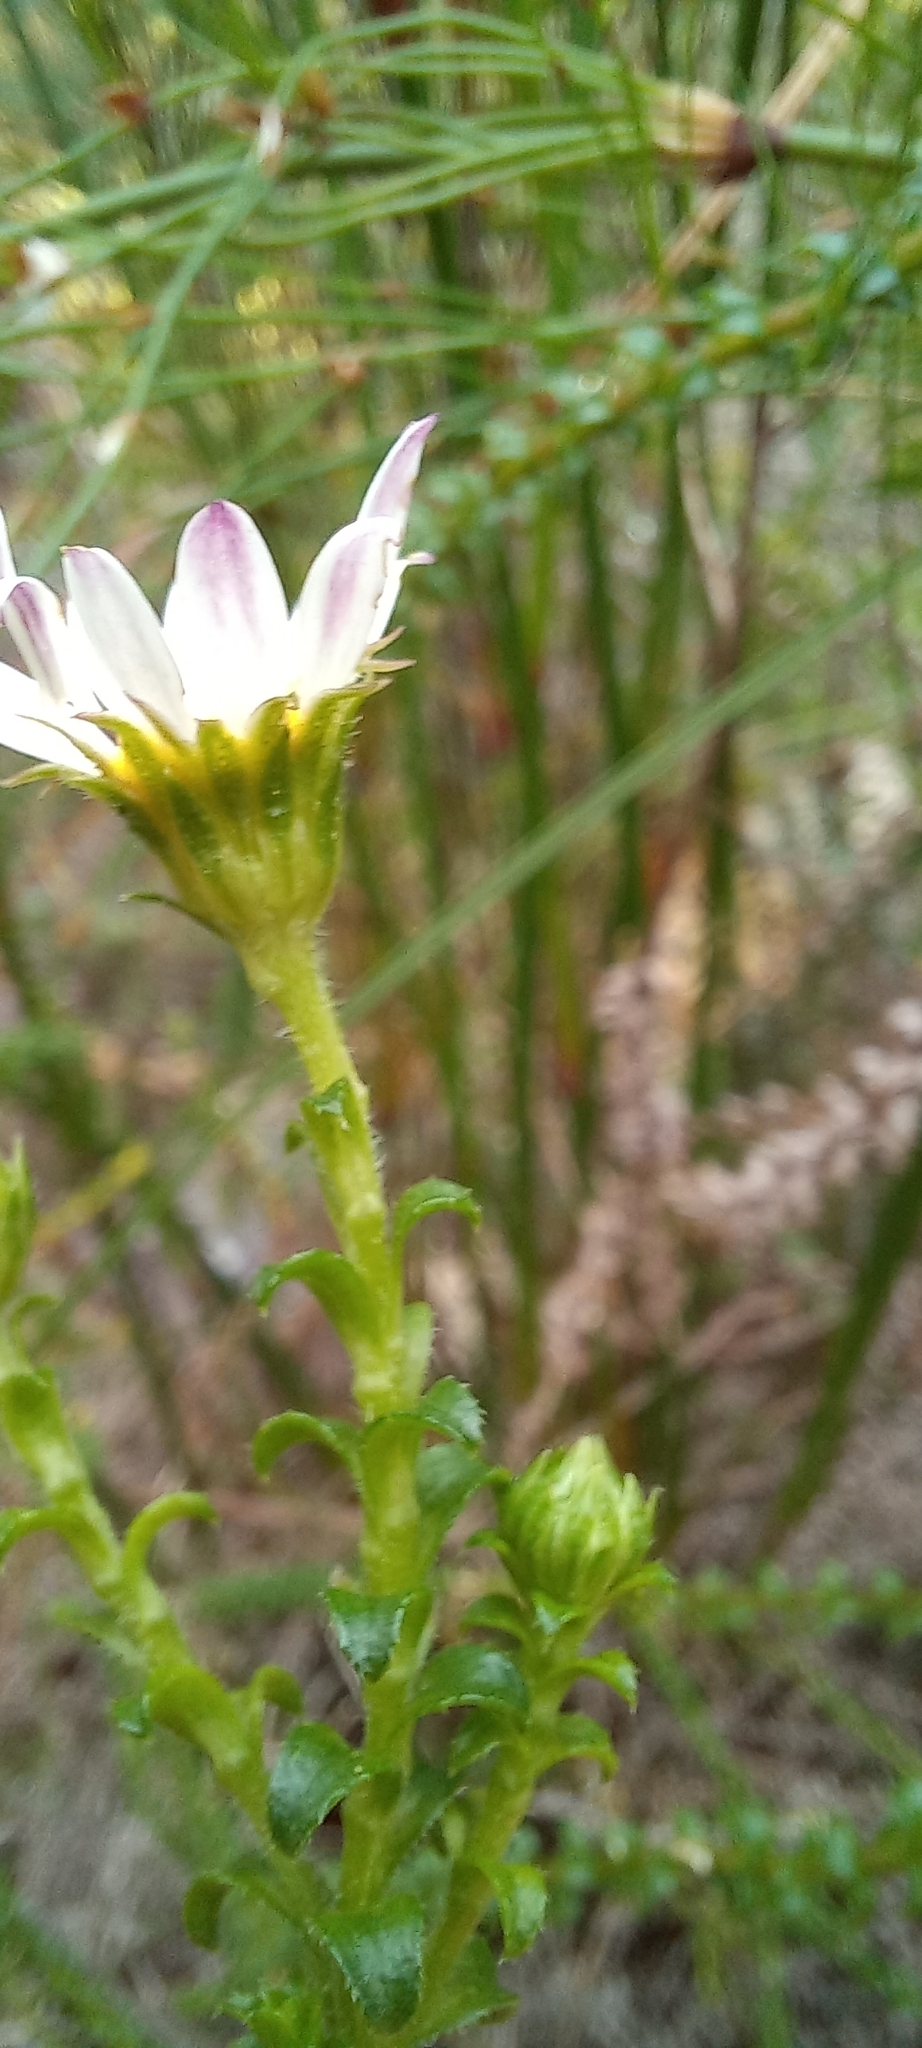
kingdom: Plantae
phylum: Tracheophyta
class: Magnoliopsida
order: Asterales
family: Asteraceae
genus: Polyarrhena
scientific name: Polyarrhena reflexa
